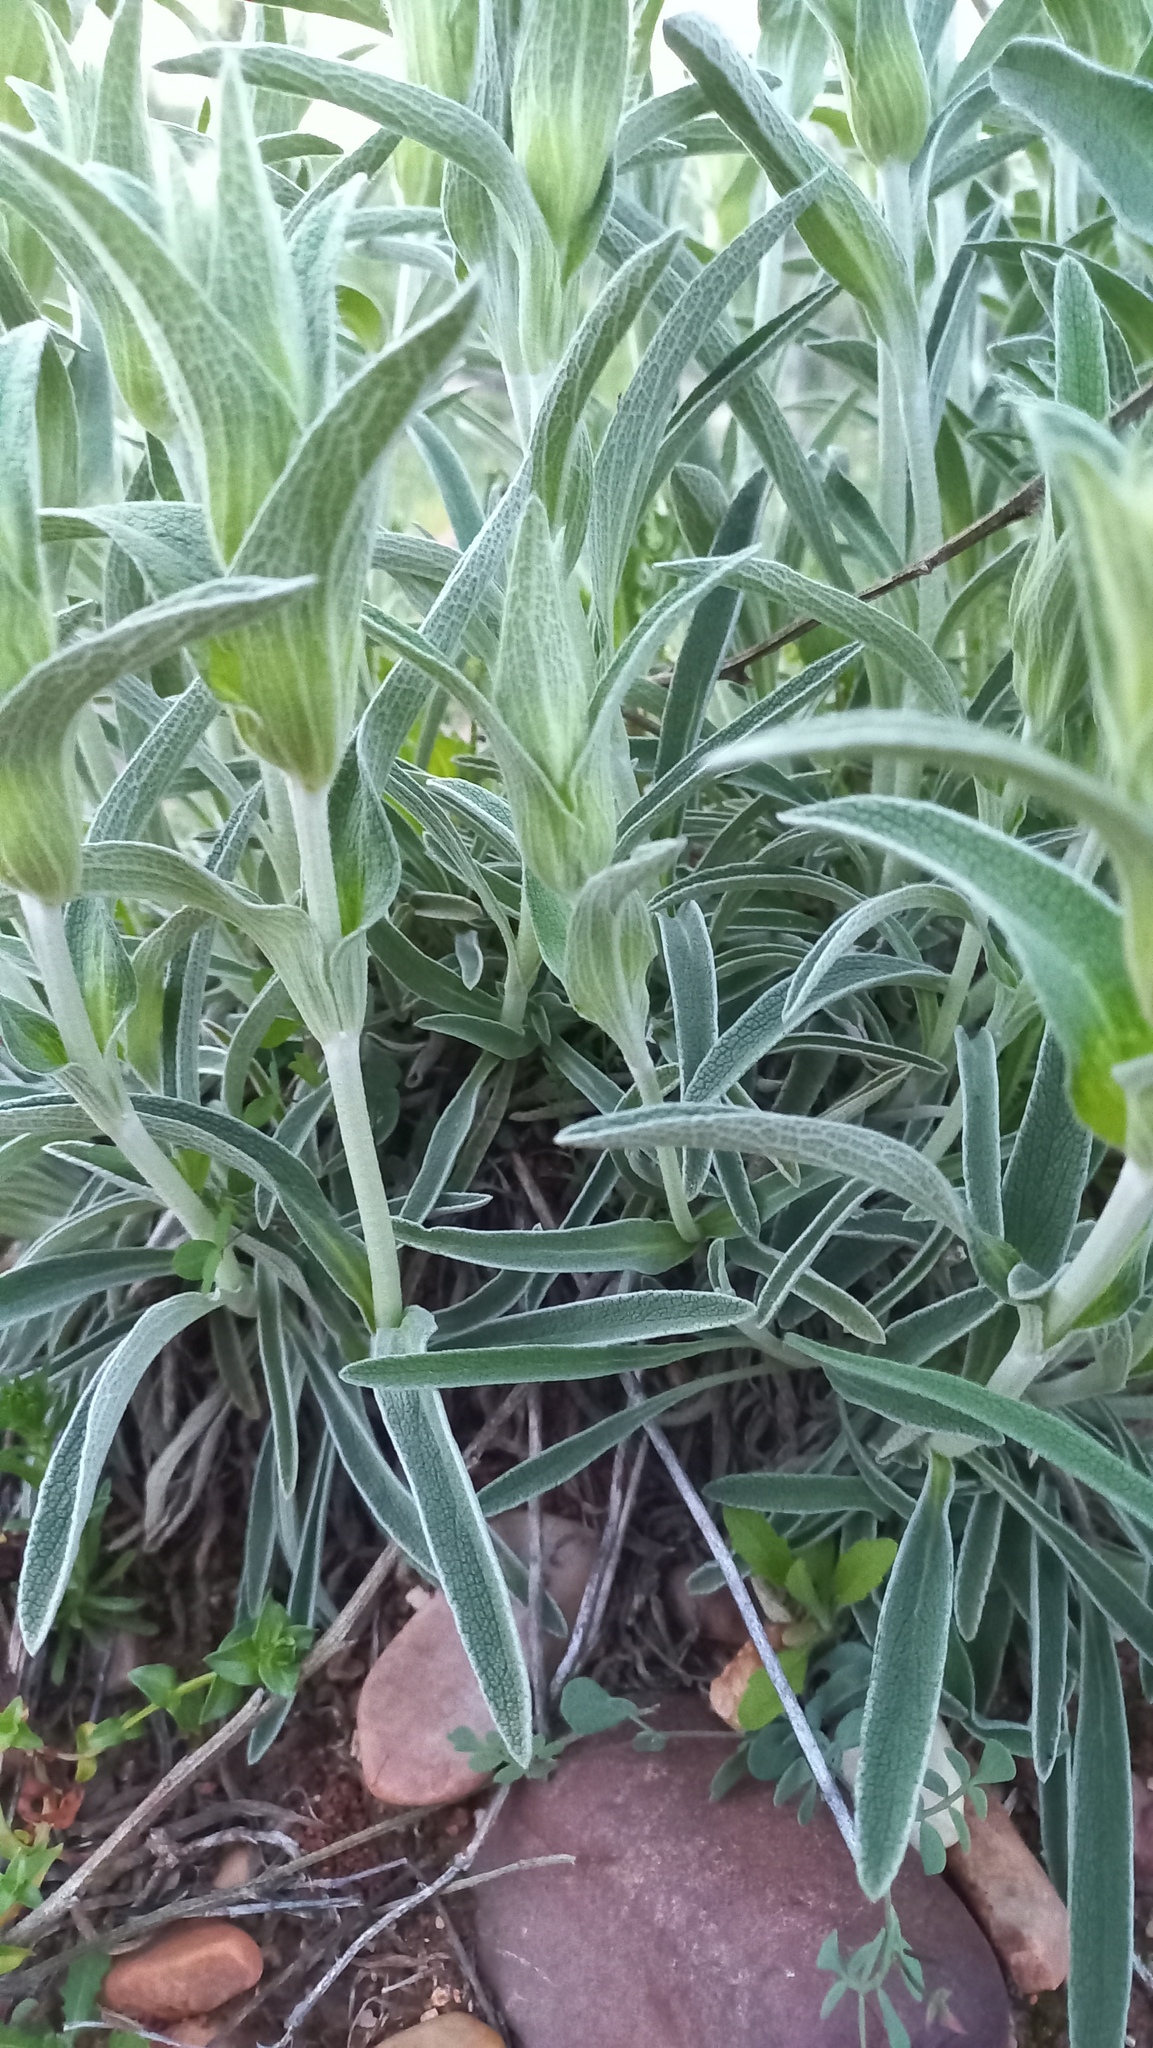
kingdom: Plantae
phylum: Tracheophyta
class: Magnoliopsida
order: Lamiales
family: Lamiaceae
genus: Phlomis
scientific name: Phlomis lychnitis
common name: Lampwickplant
